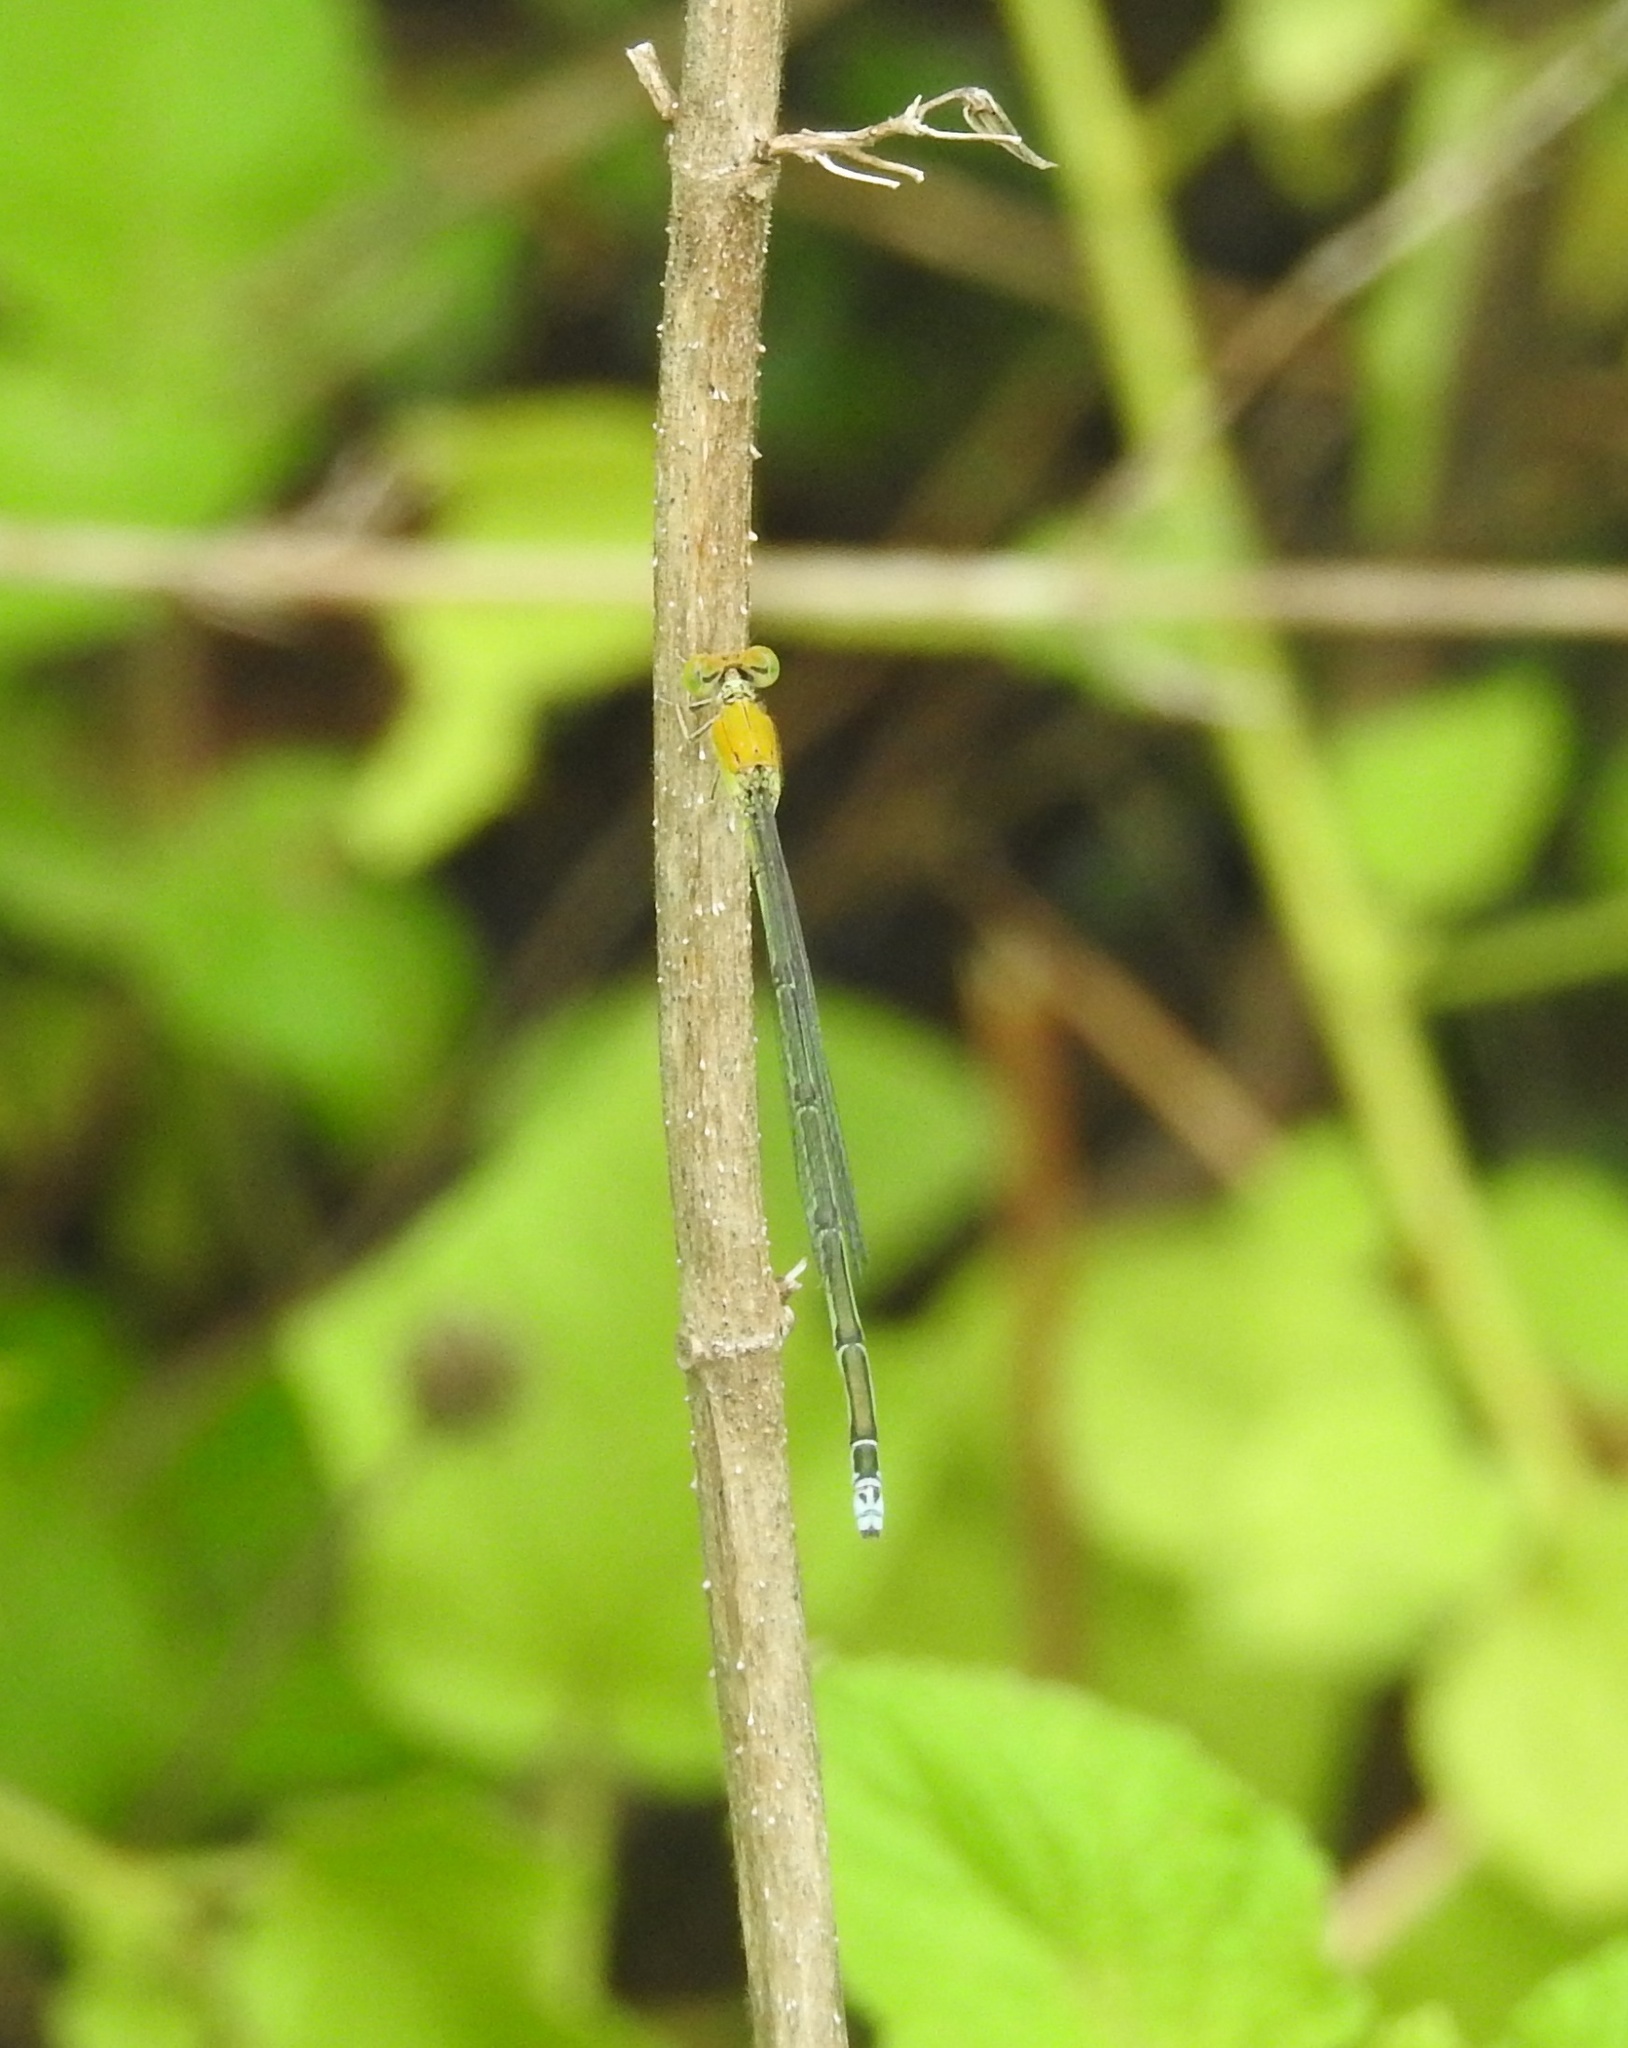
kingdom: Animalia
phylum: Arthropoda
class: Insecta
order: Odonata
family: Coenagrionidae
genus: Pseudagrion
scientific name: Pseudagrion rubriceps
